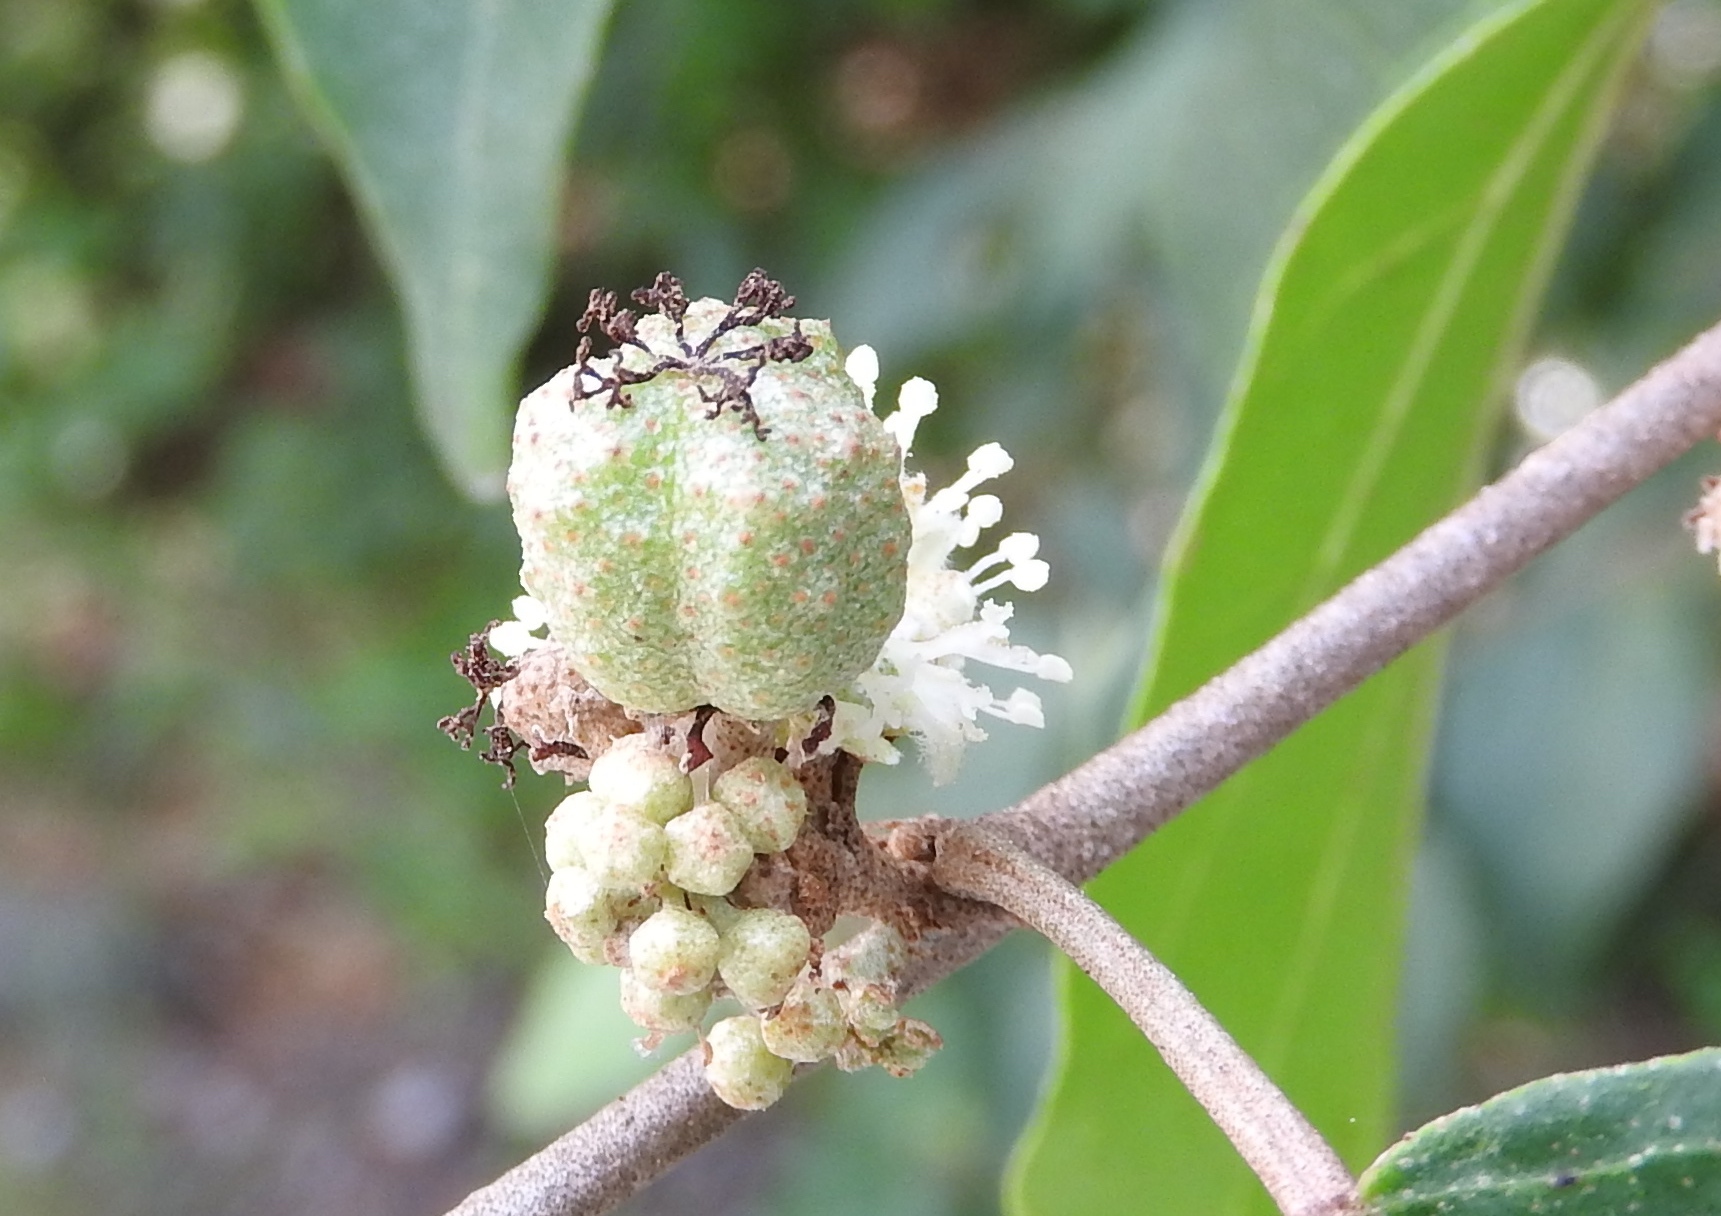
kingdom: Plantae
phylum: Tracheophyta
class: Magnoliopsida
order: Malpighiales
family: Euphorbiaceae
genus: Croton
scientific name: Croton pseudoniveus
